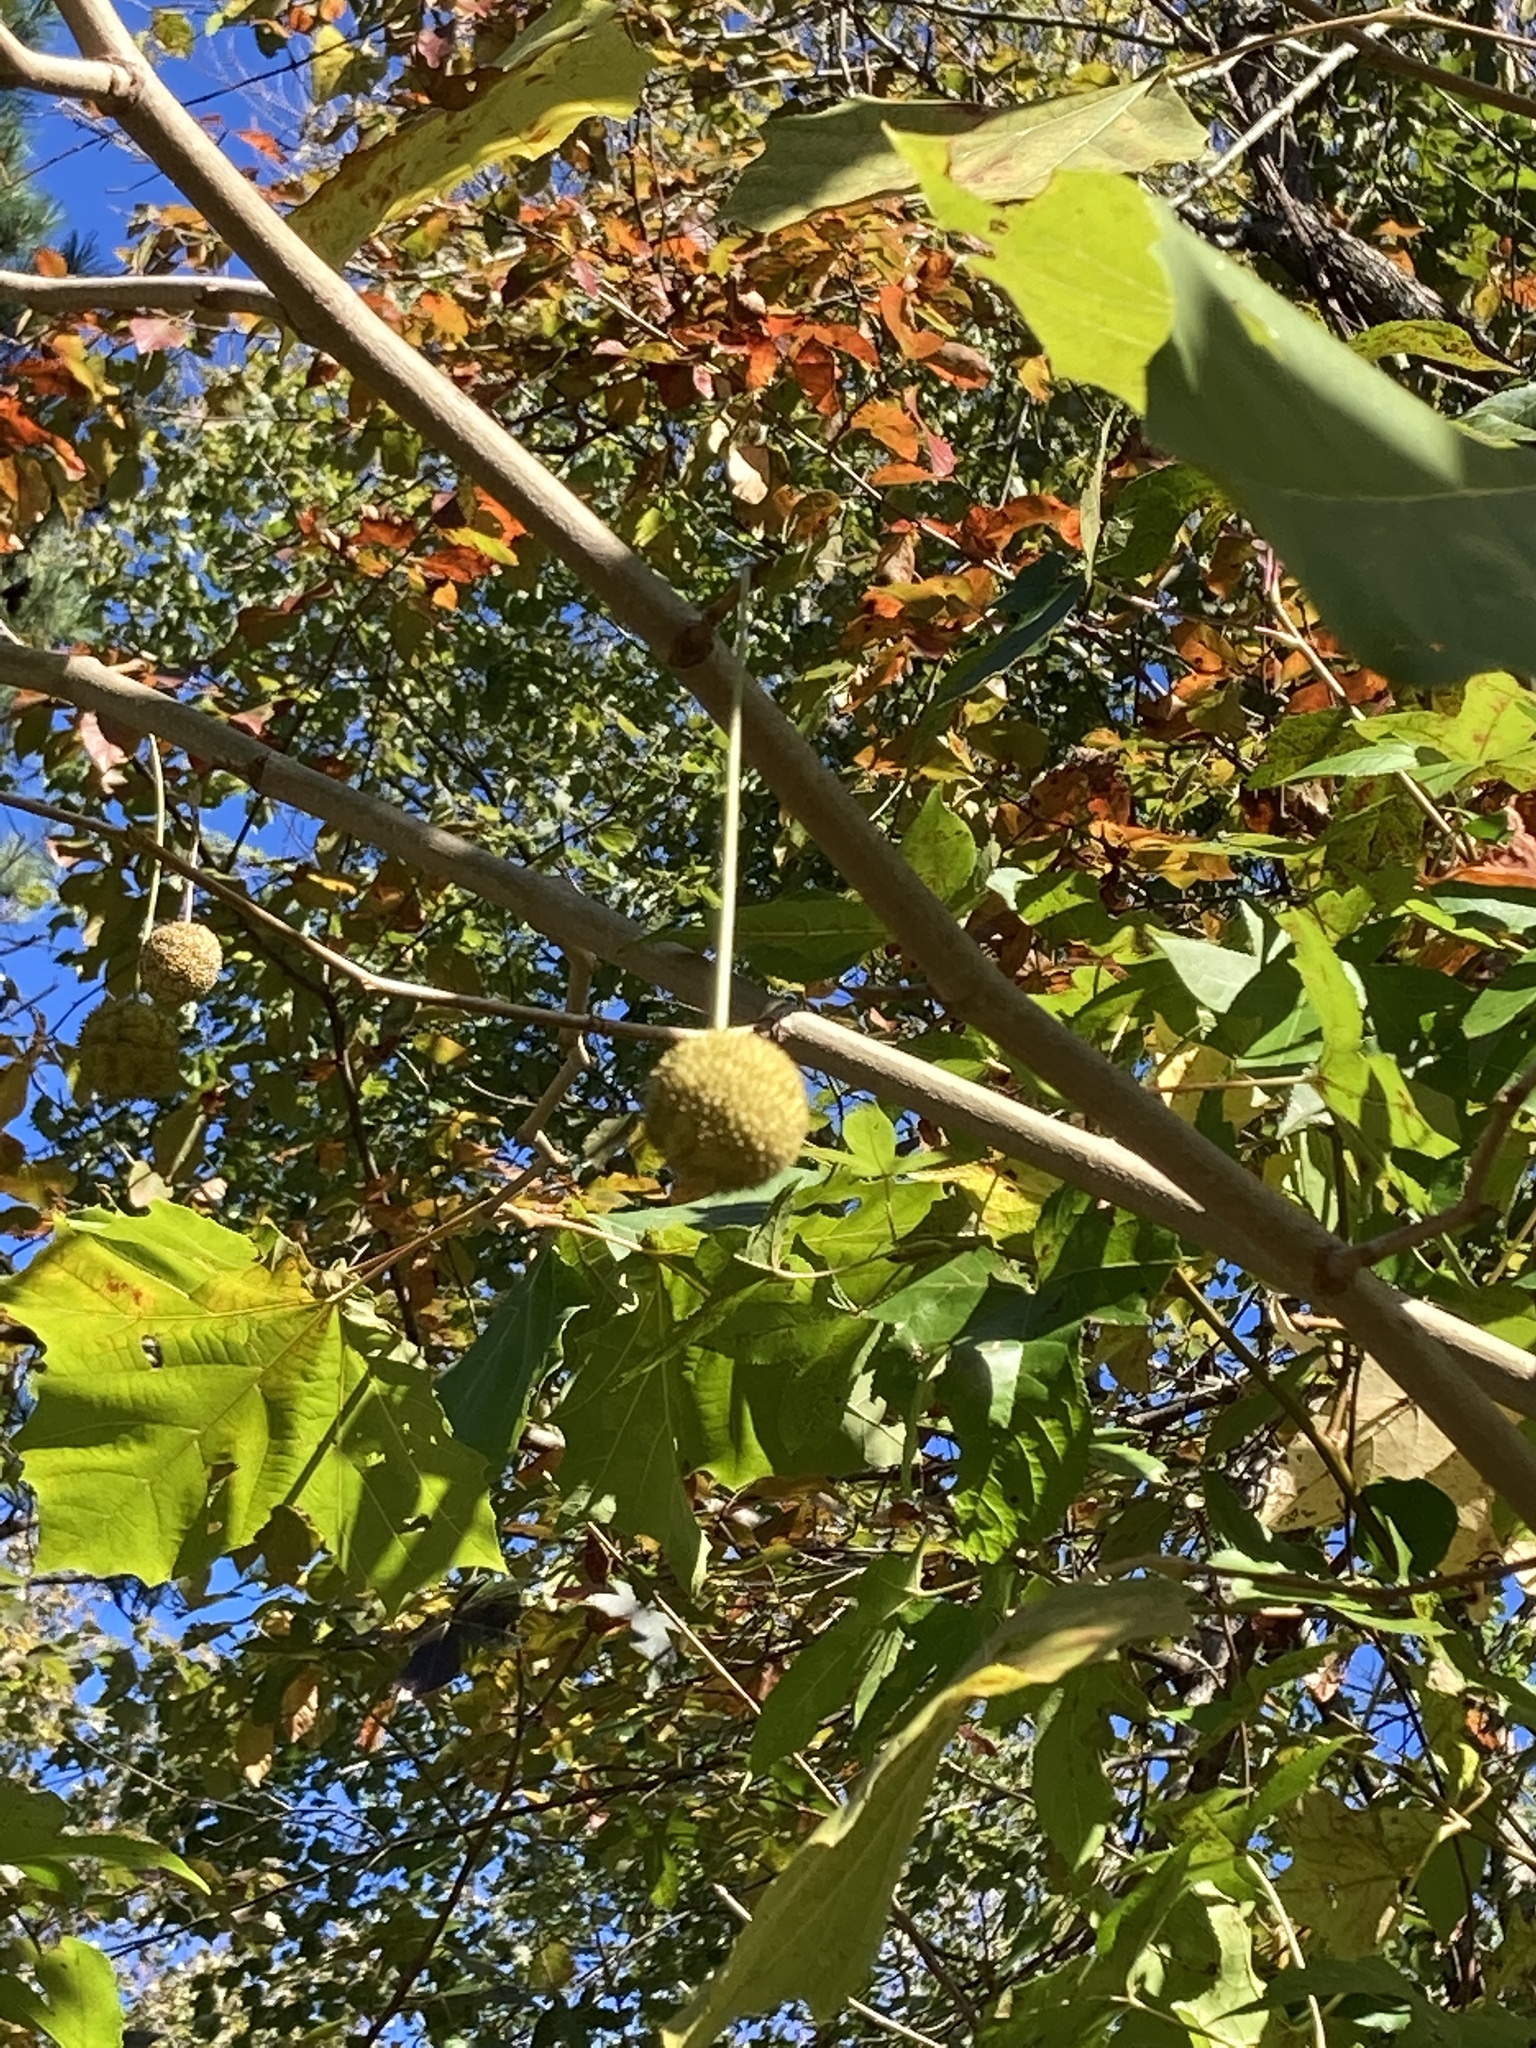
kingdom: Plantae
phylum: Tracheophyta
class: Magnoliopsida
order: Proteales
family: Platanaceae
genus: Platanus
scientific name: Platanus occidentalis
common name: American sycamore
